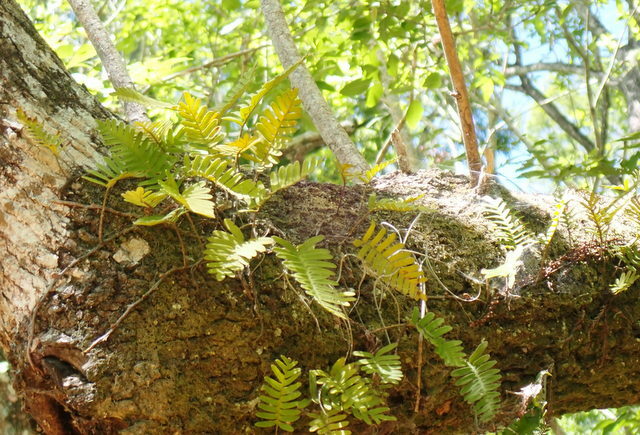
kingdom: Plantae
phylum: Tracheophyta
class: Polypodiopsida
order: Polypodiales
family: Polypodiaceae
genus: Pleopeltis
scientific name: Pleopeltis michauxiana
